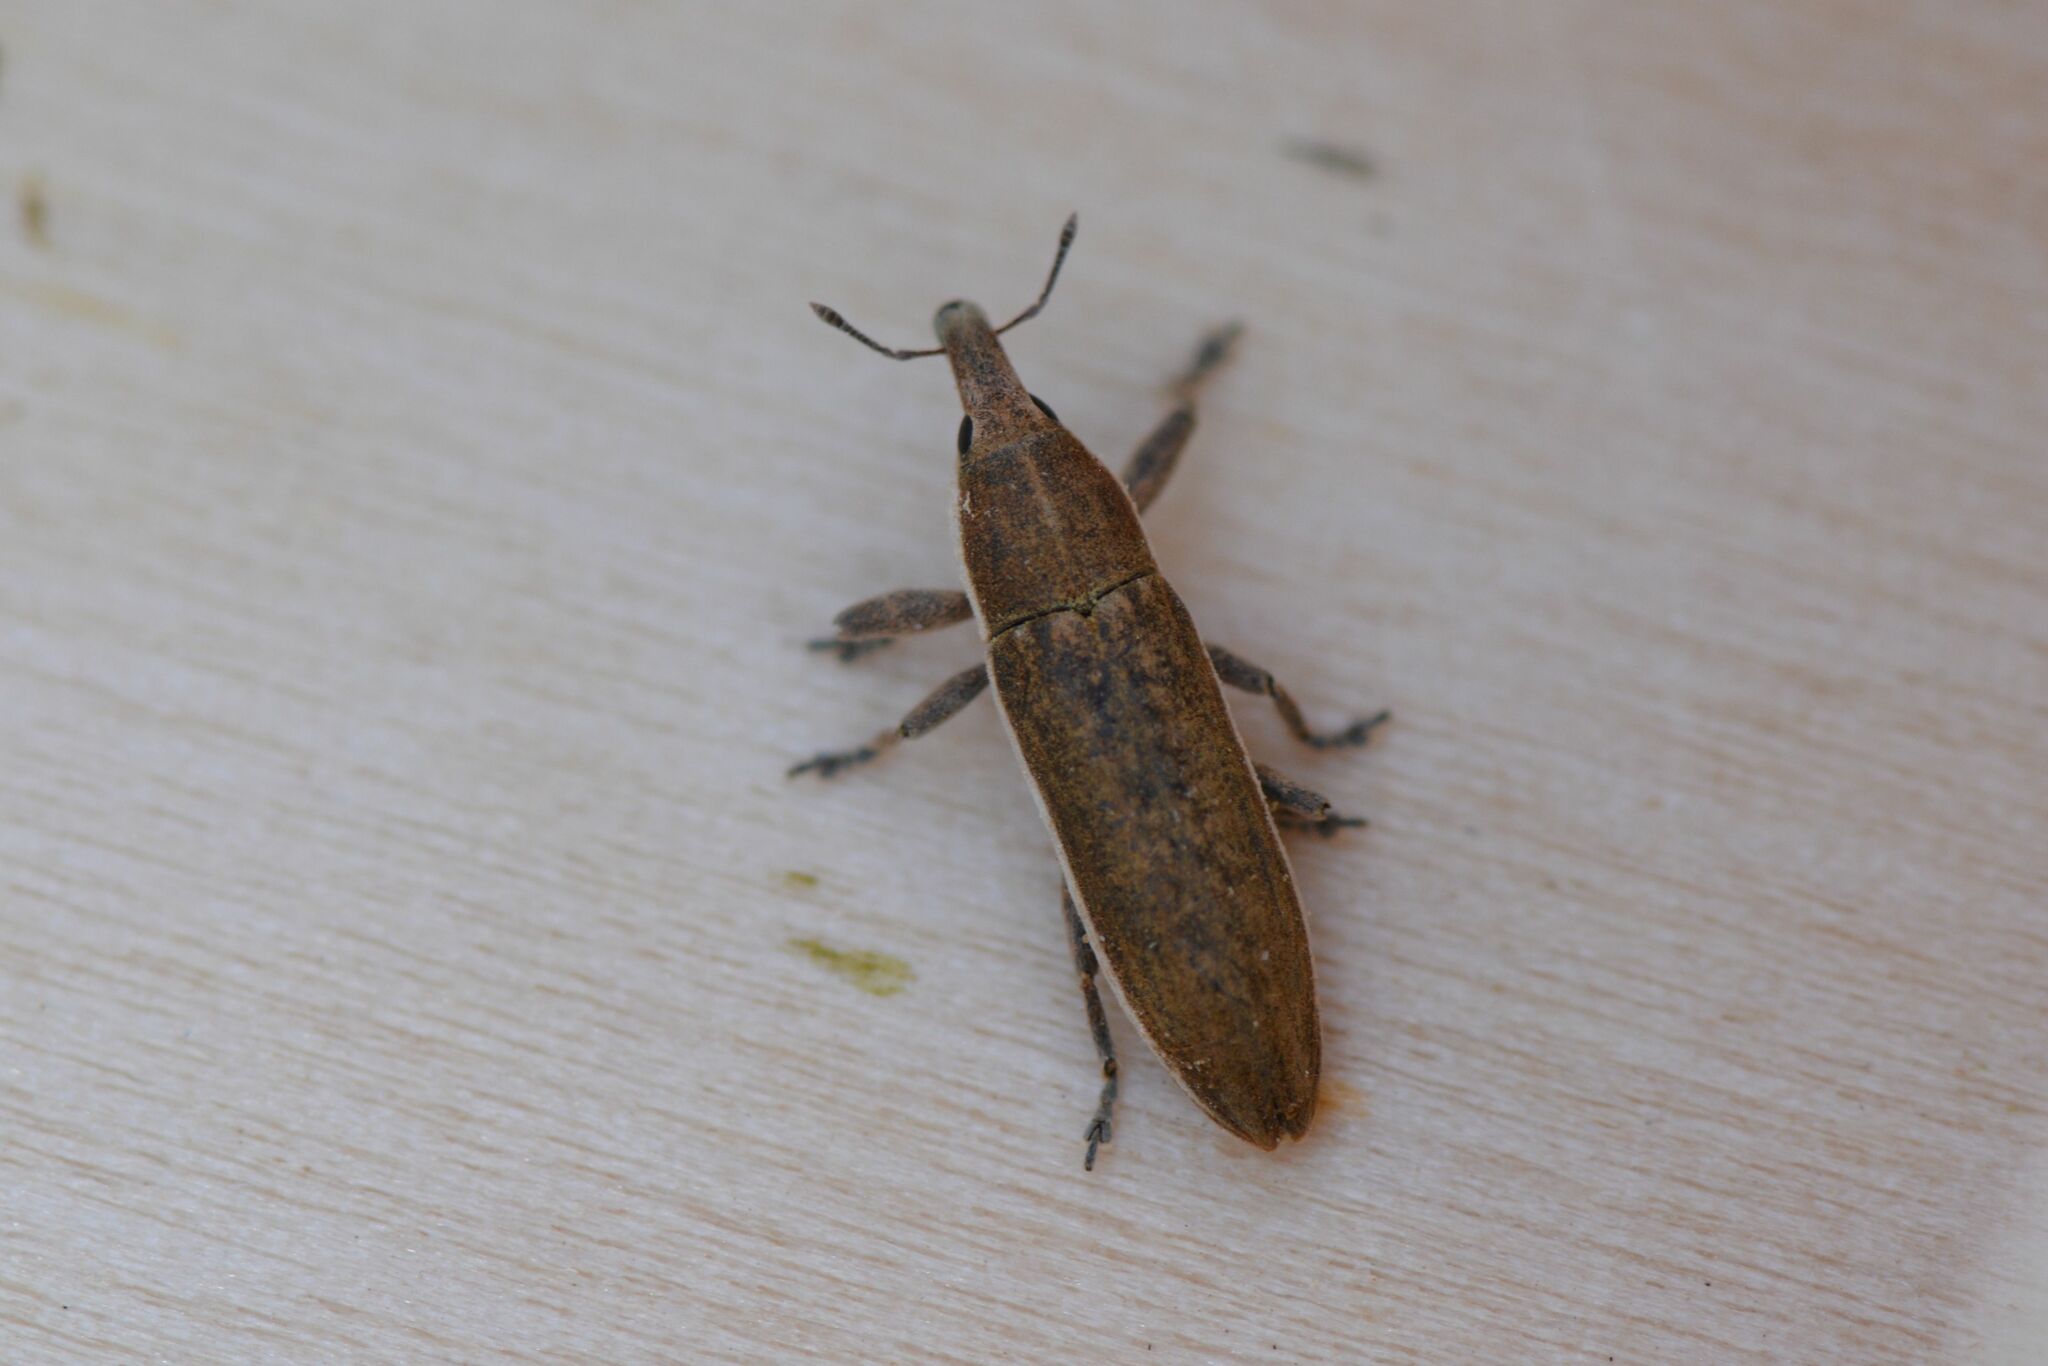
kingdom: Animalia
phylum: Arthropoda
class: Insecta
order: Coleoptera
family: Curculionidae
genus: Lixus
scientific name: Lixus juncii
